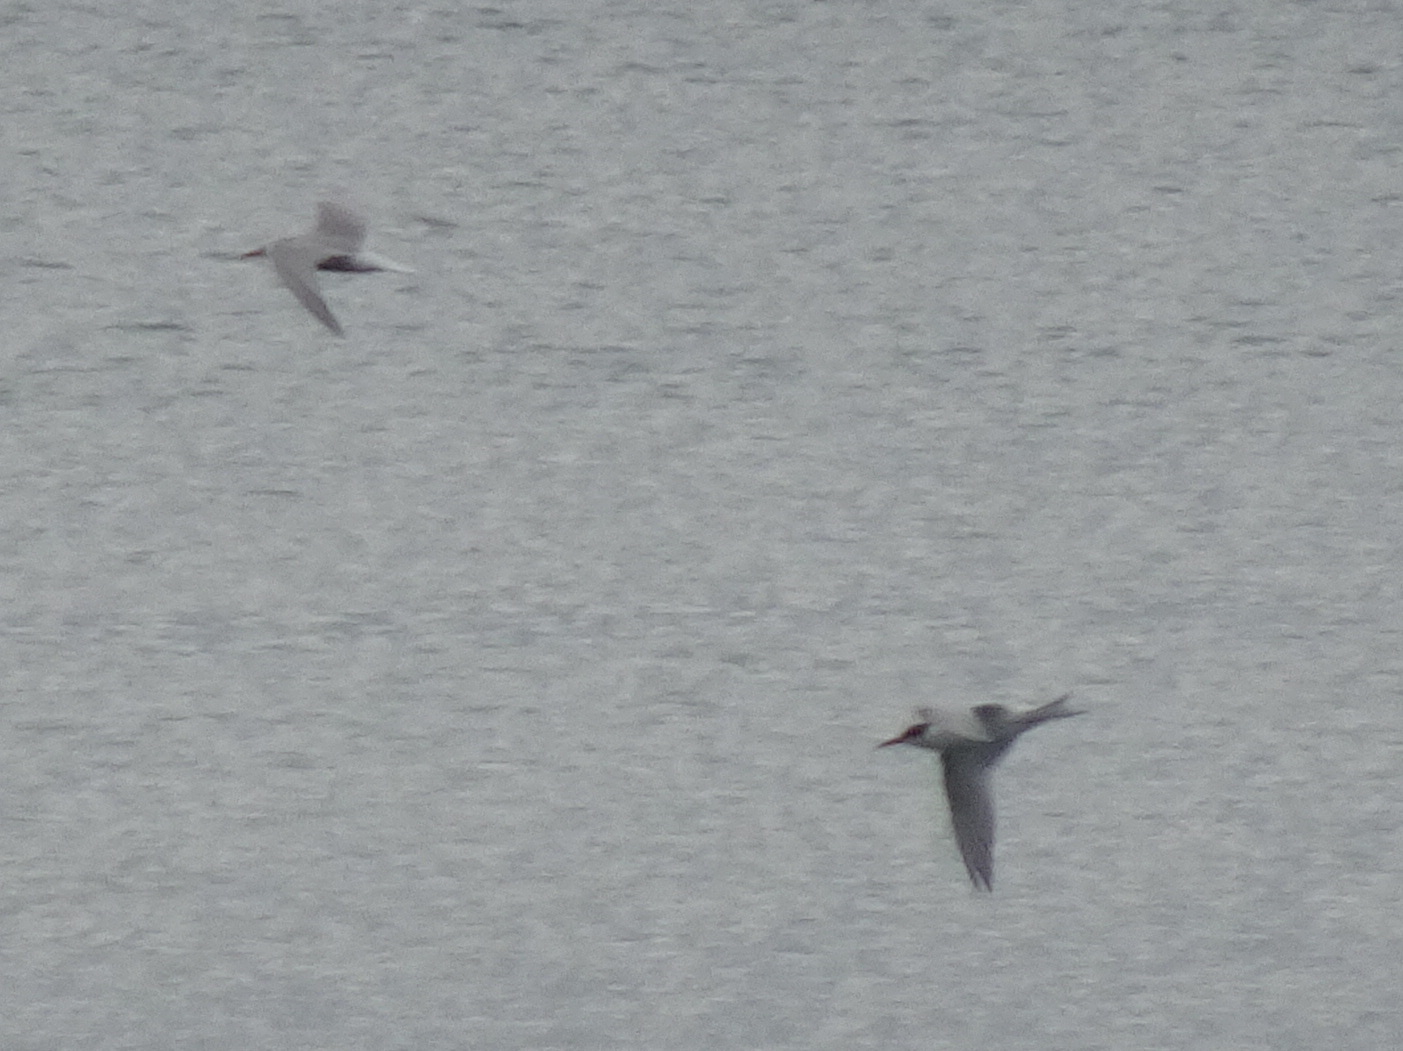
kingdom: Animalia
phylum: Chordata
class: Aves
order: Charadriiformes
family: Laridae
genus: Sterna
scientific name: Sterna hirundo
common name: Common tern
